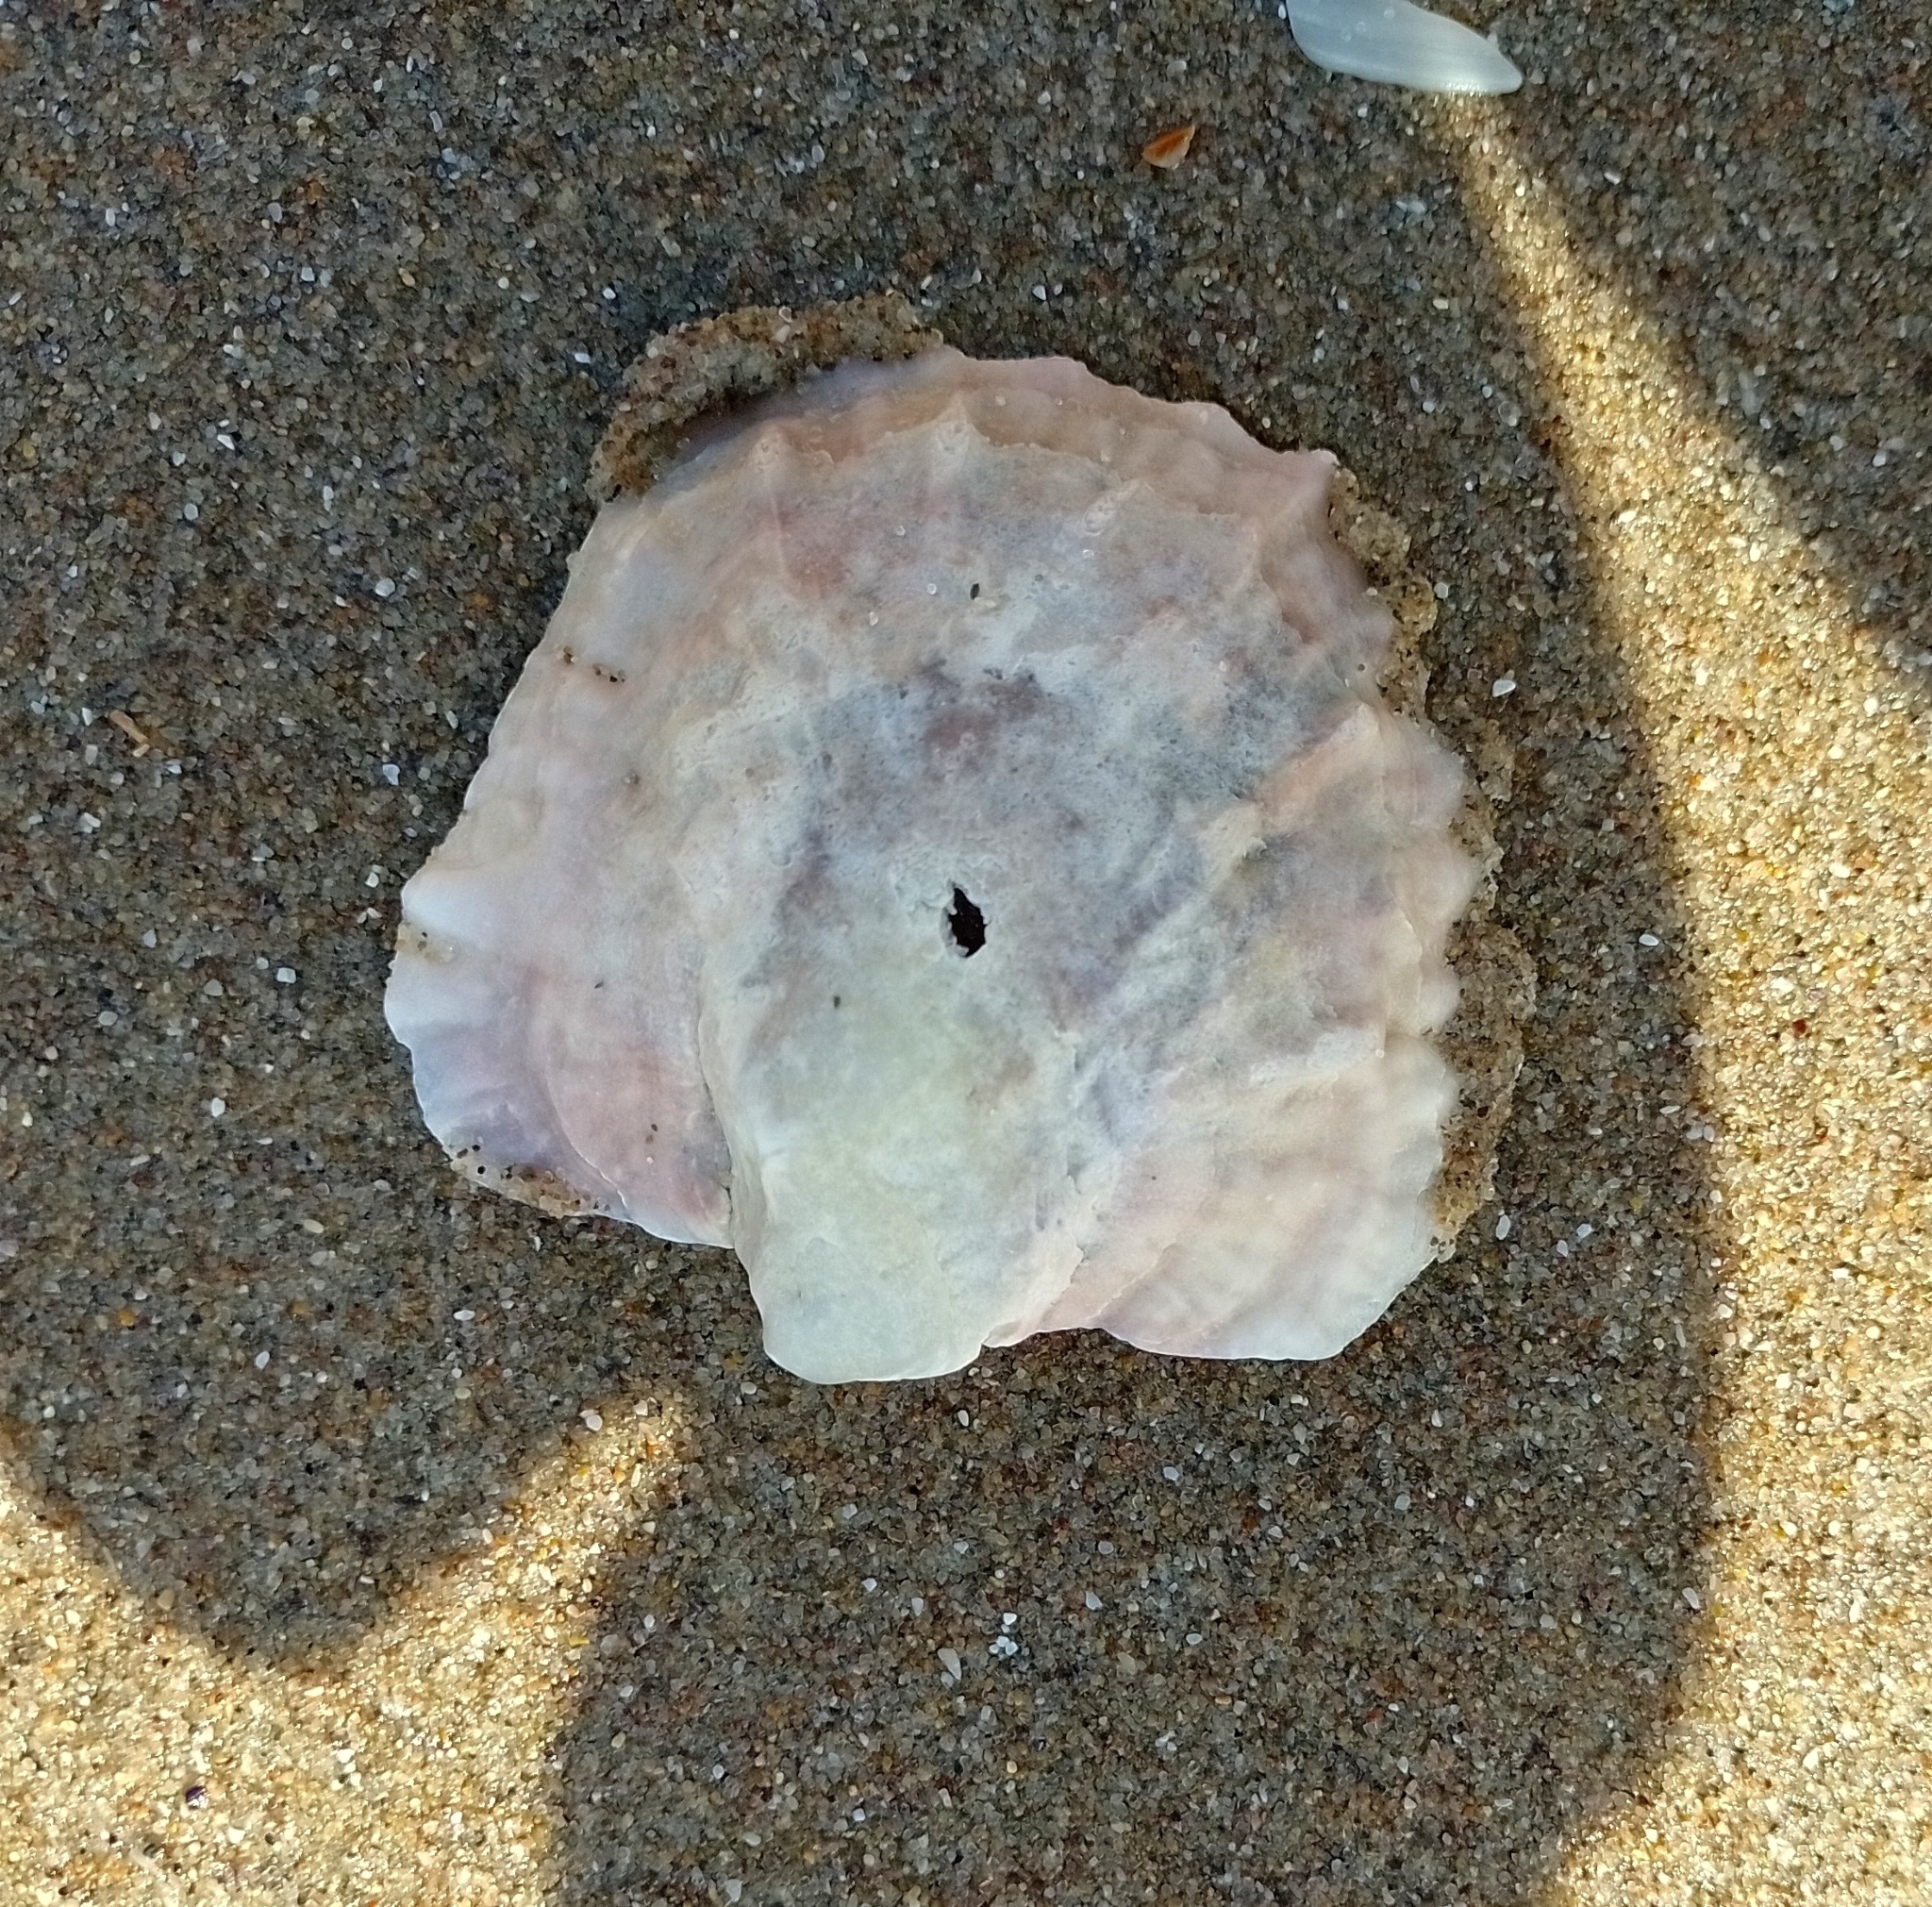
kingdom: Animalia
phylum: Mollusca
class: Bivalvia
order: Ostreida
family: Ostreidae
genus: Ostrea
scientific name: Ostrea puelchana
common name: Argentine flat oyster
